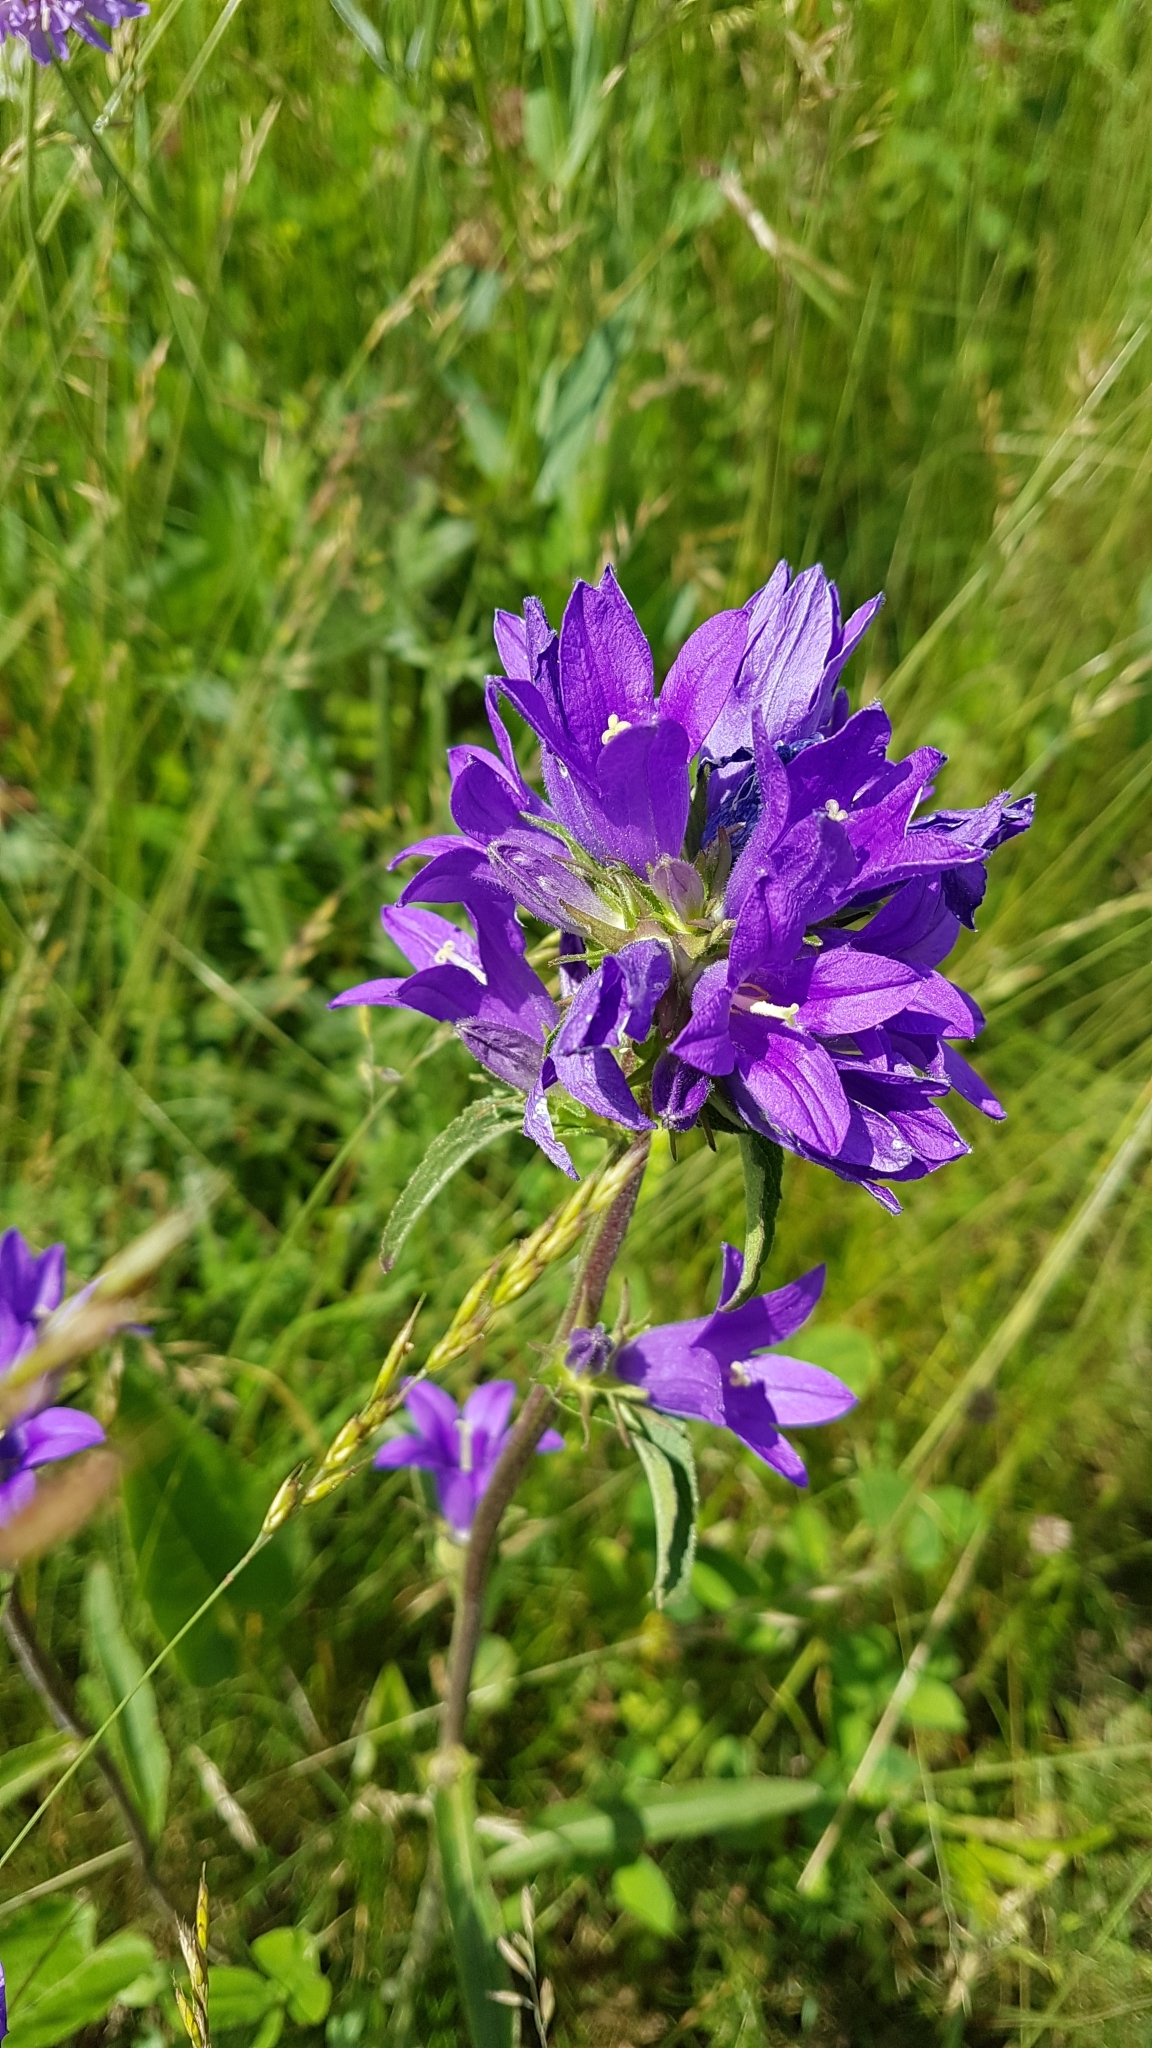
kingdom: Plantae
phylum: Tracheophyta
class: Magnoliopsida
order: Asterales
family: Campanulaceae
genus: Campanula
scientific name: Campanula glomerata
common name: Clustered bellflower
